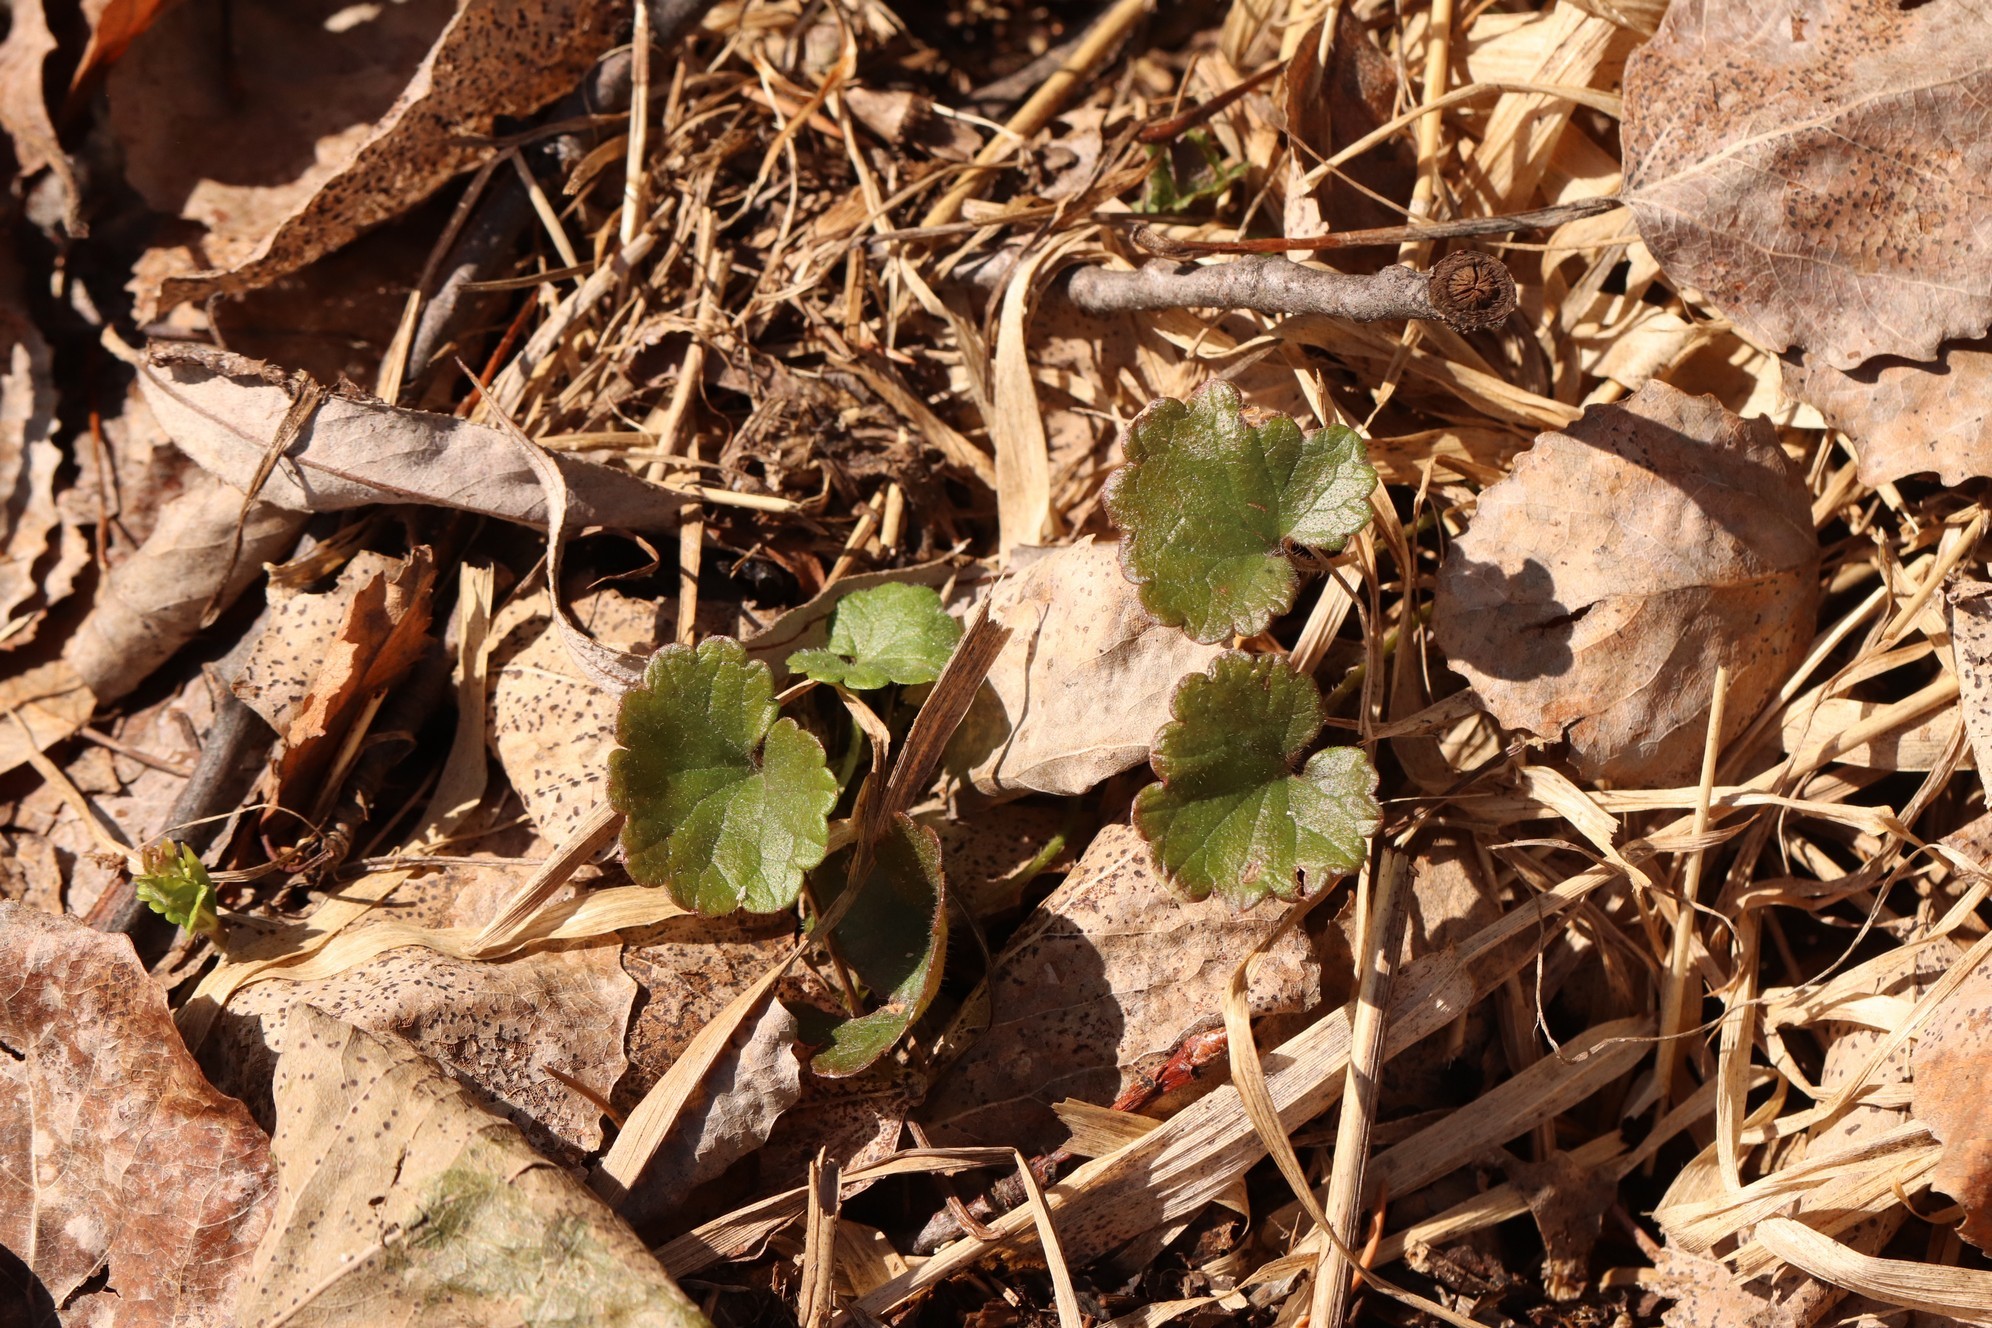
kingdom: Plantae
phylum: Tracheophyta
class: Magnoliopsida
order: Lamiales
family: Lamiaceae
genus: Glechoma
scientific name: Glechoma hederacea
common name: Ground ivy
